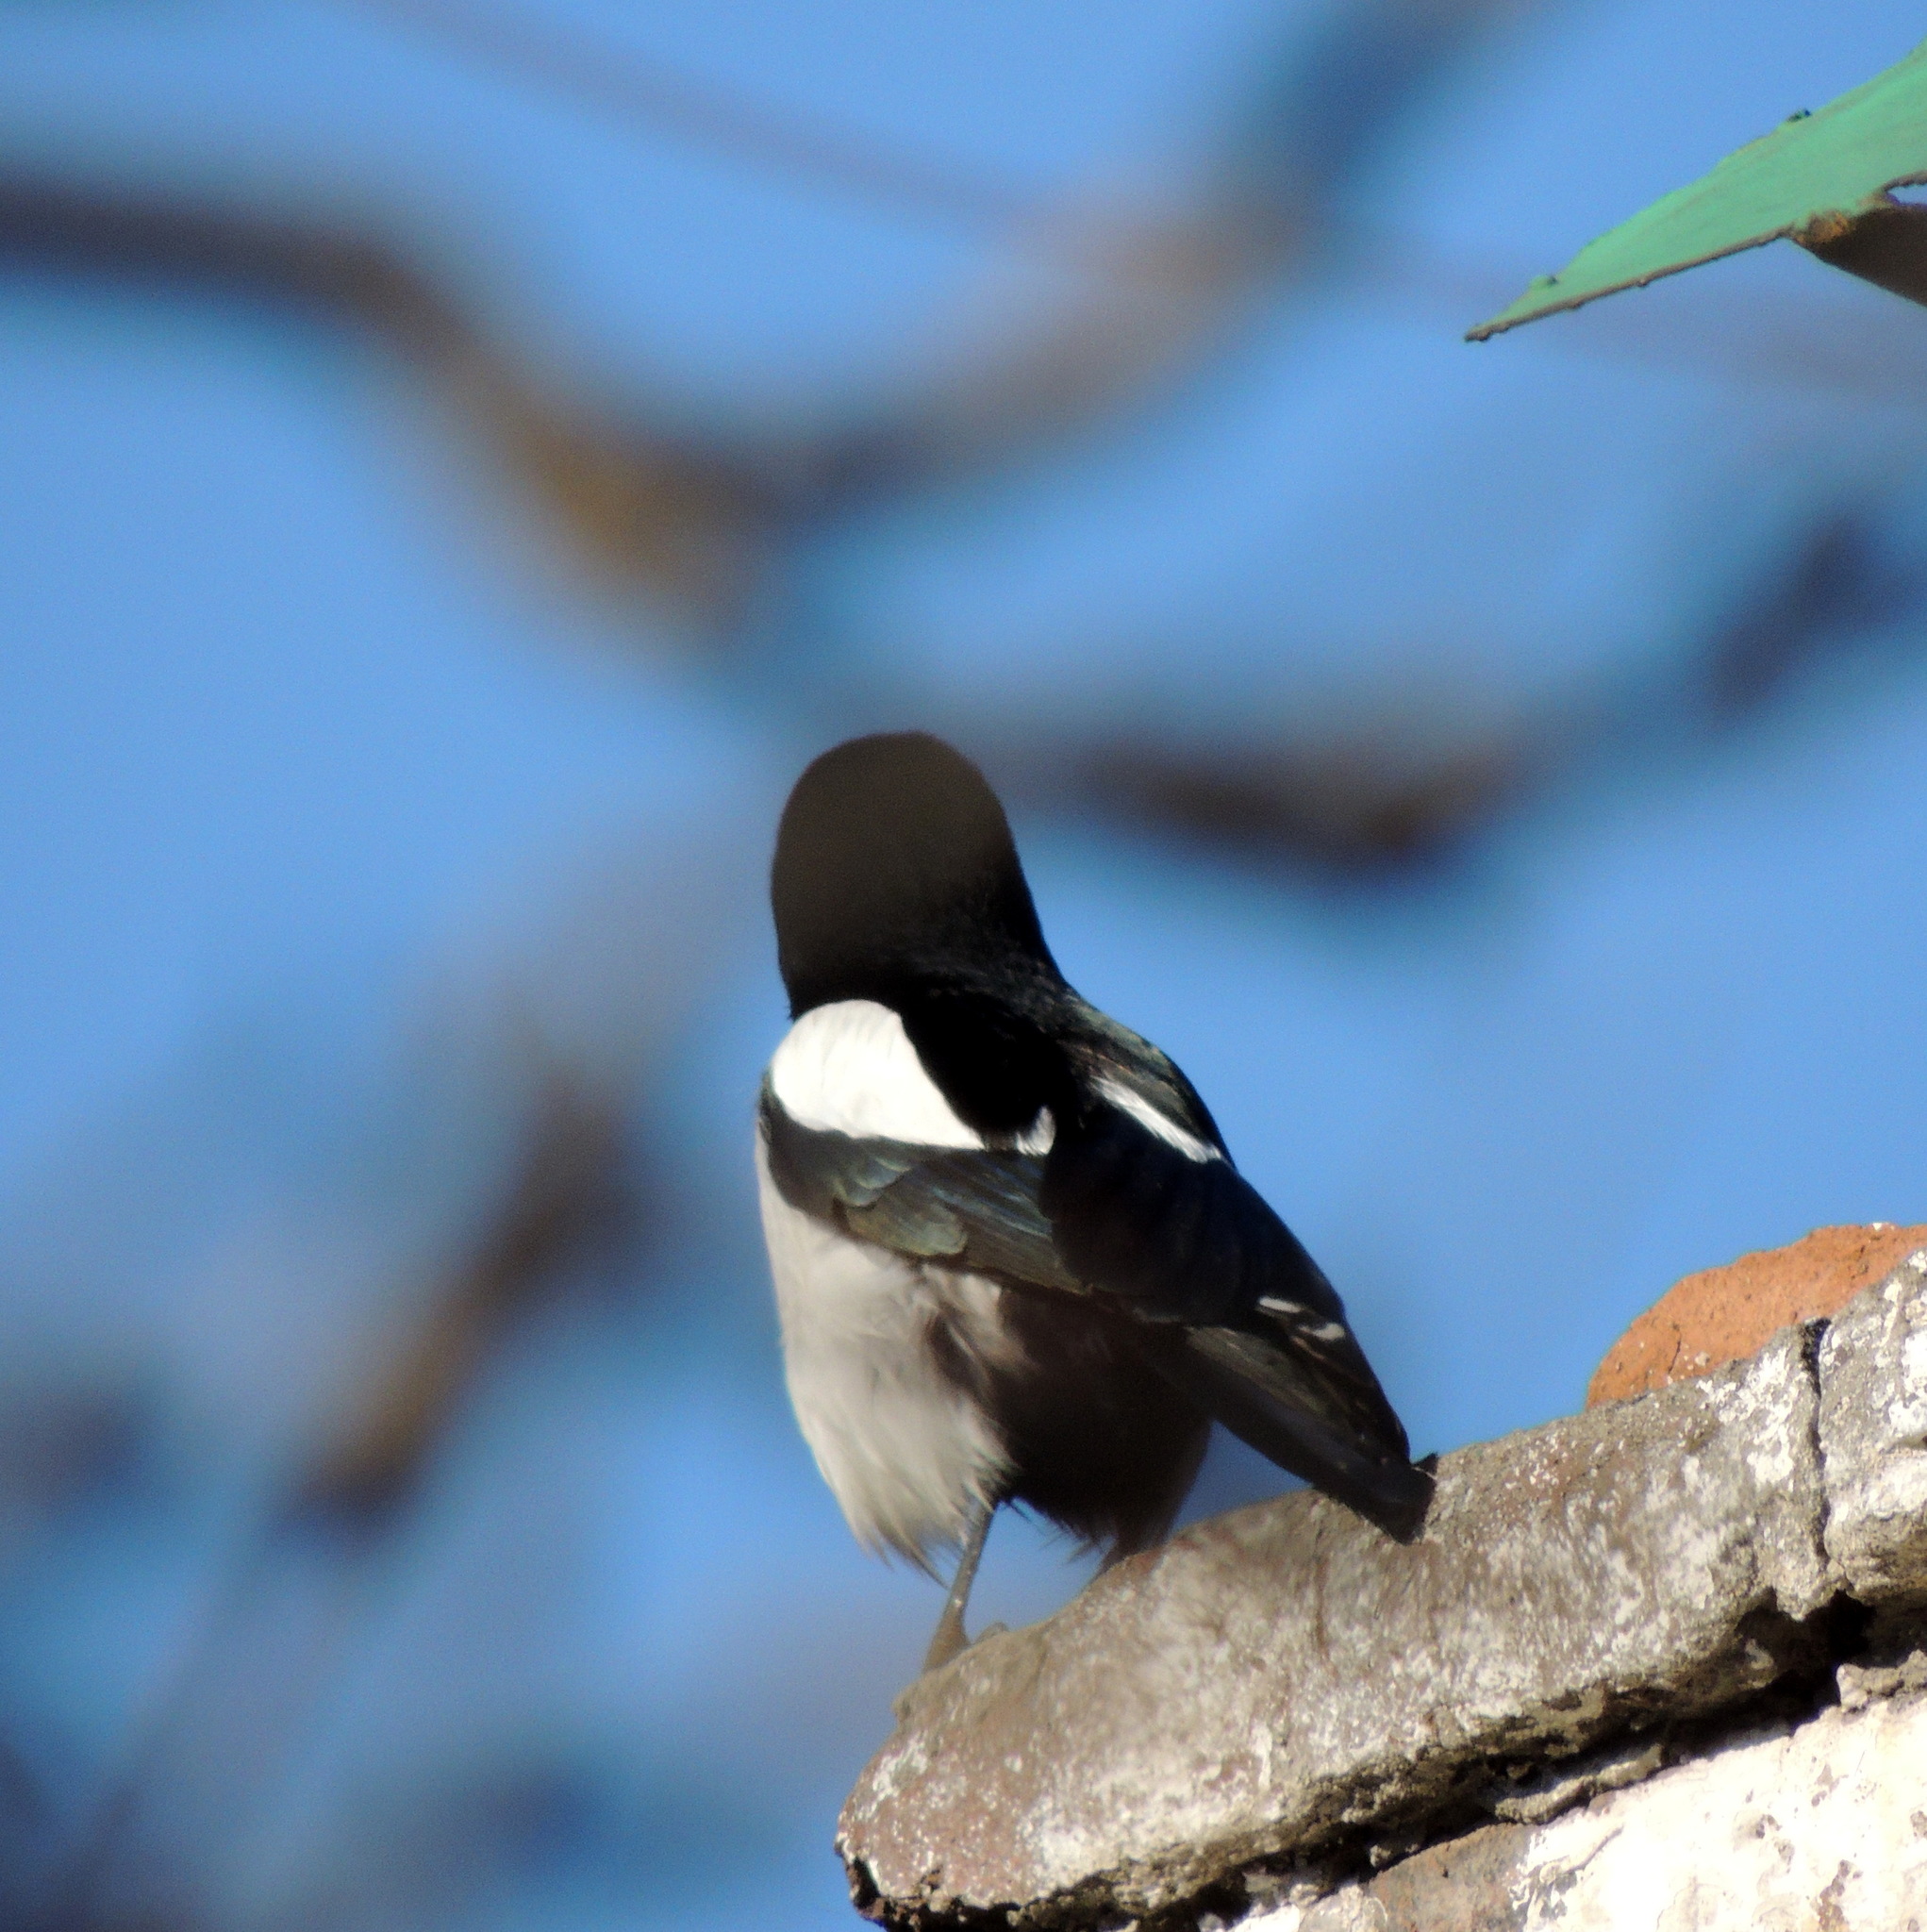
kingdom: Animalia
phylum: Chordata
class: Aves
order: Passeriformes
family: Corvidae
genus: Pica
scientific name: Pica pica
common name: Eurasian magpie
